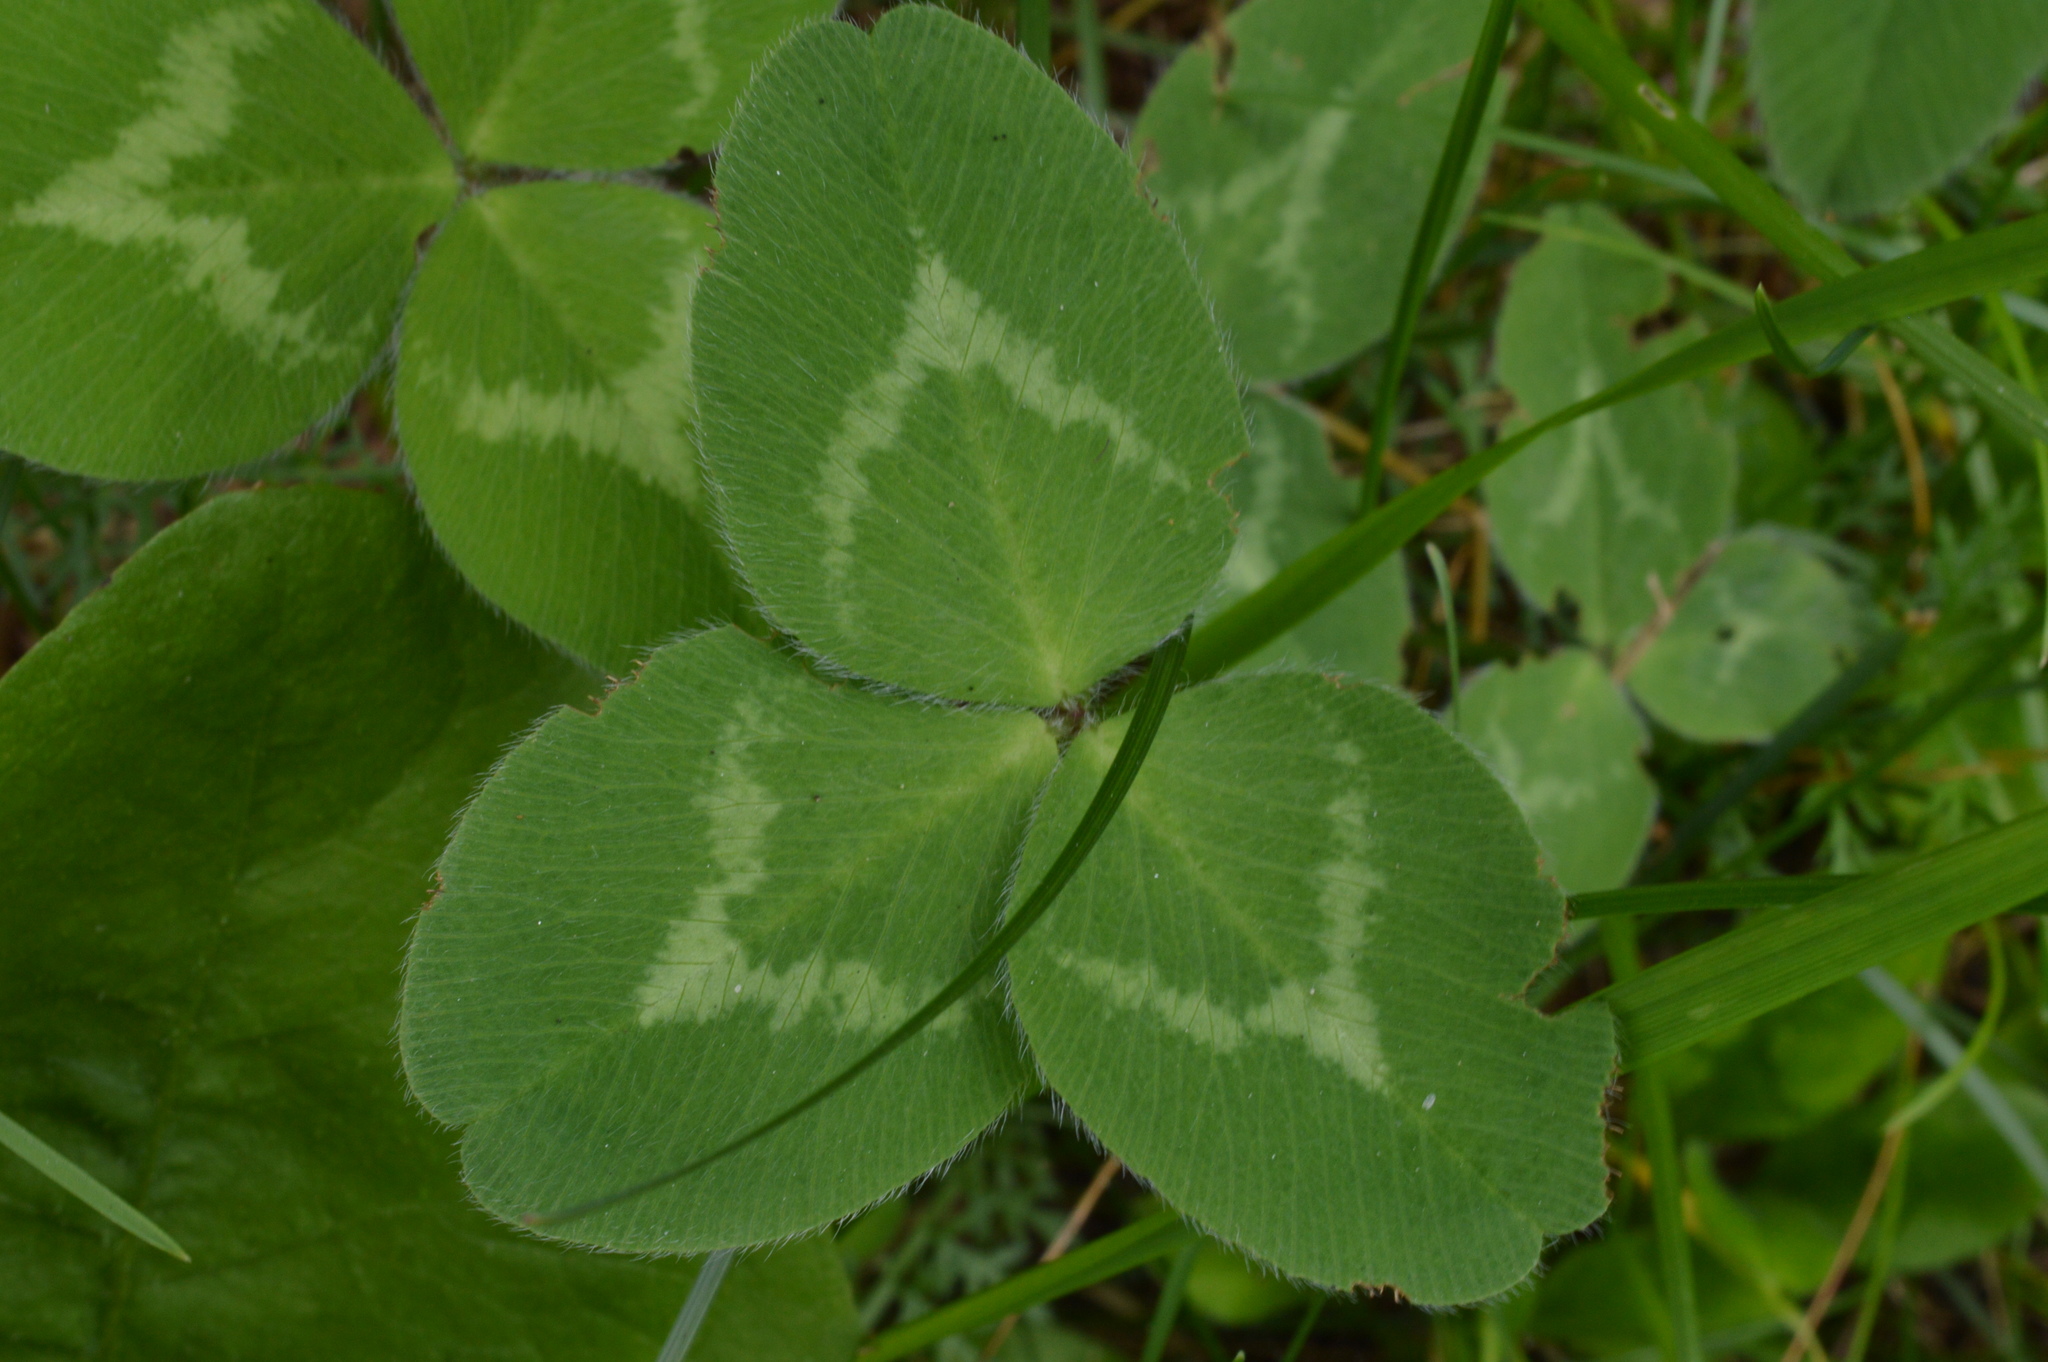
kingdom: Plantae
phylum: Tracheophyta
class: Magnoliopsida
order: Fabales
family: Fabaceae
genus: Trifolium
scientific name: Trifolium pratense
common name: Red clover
